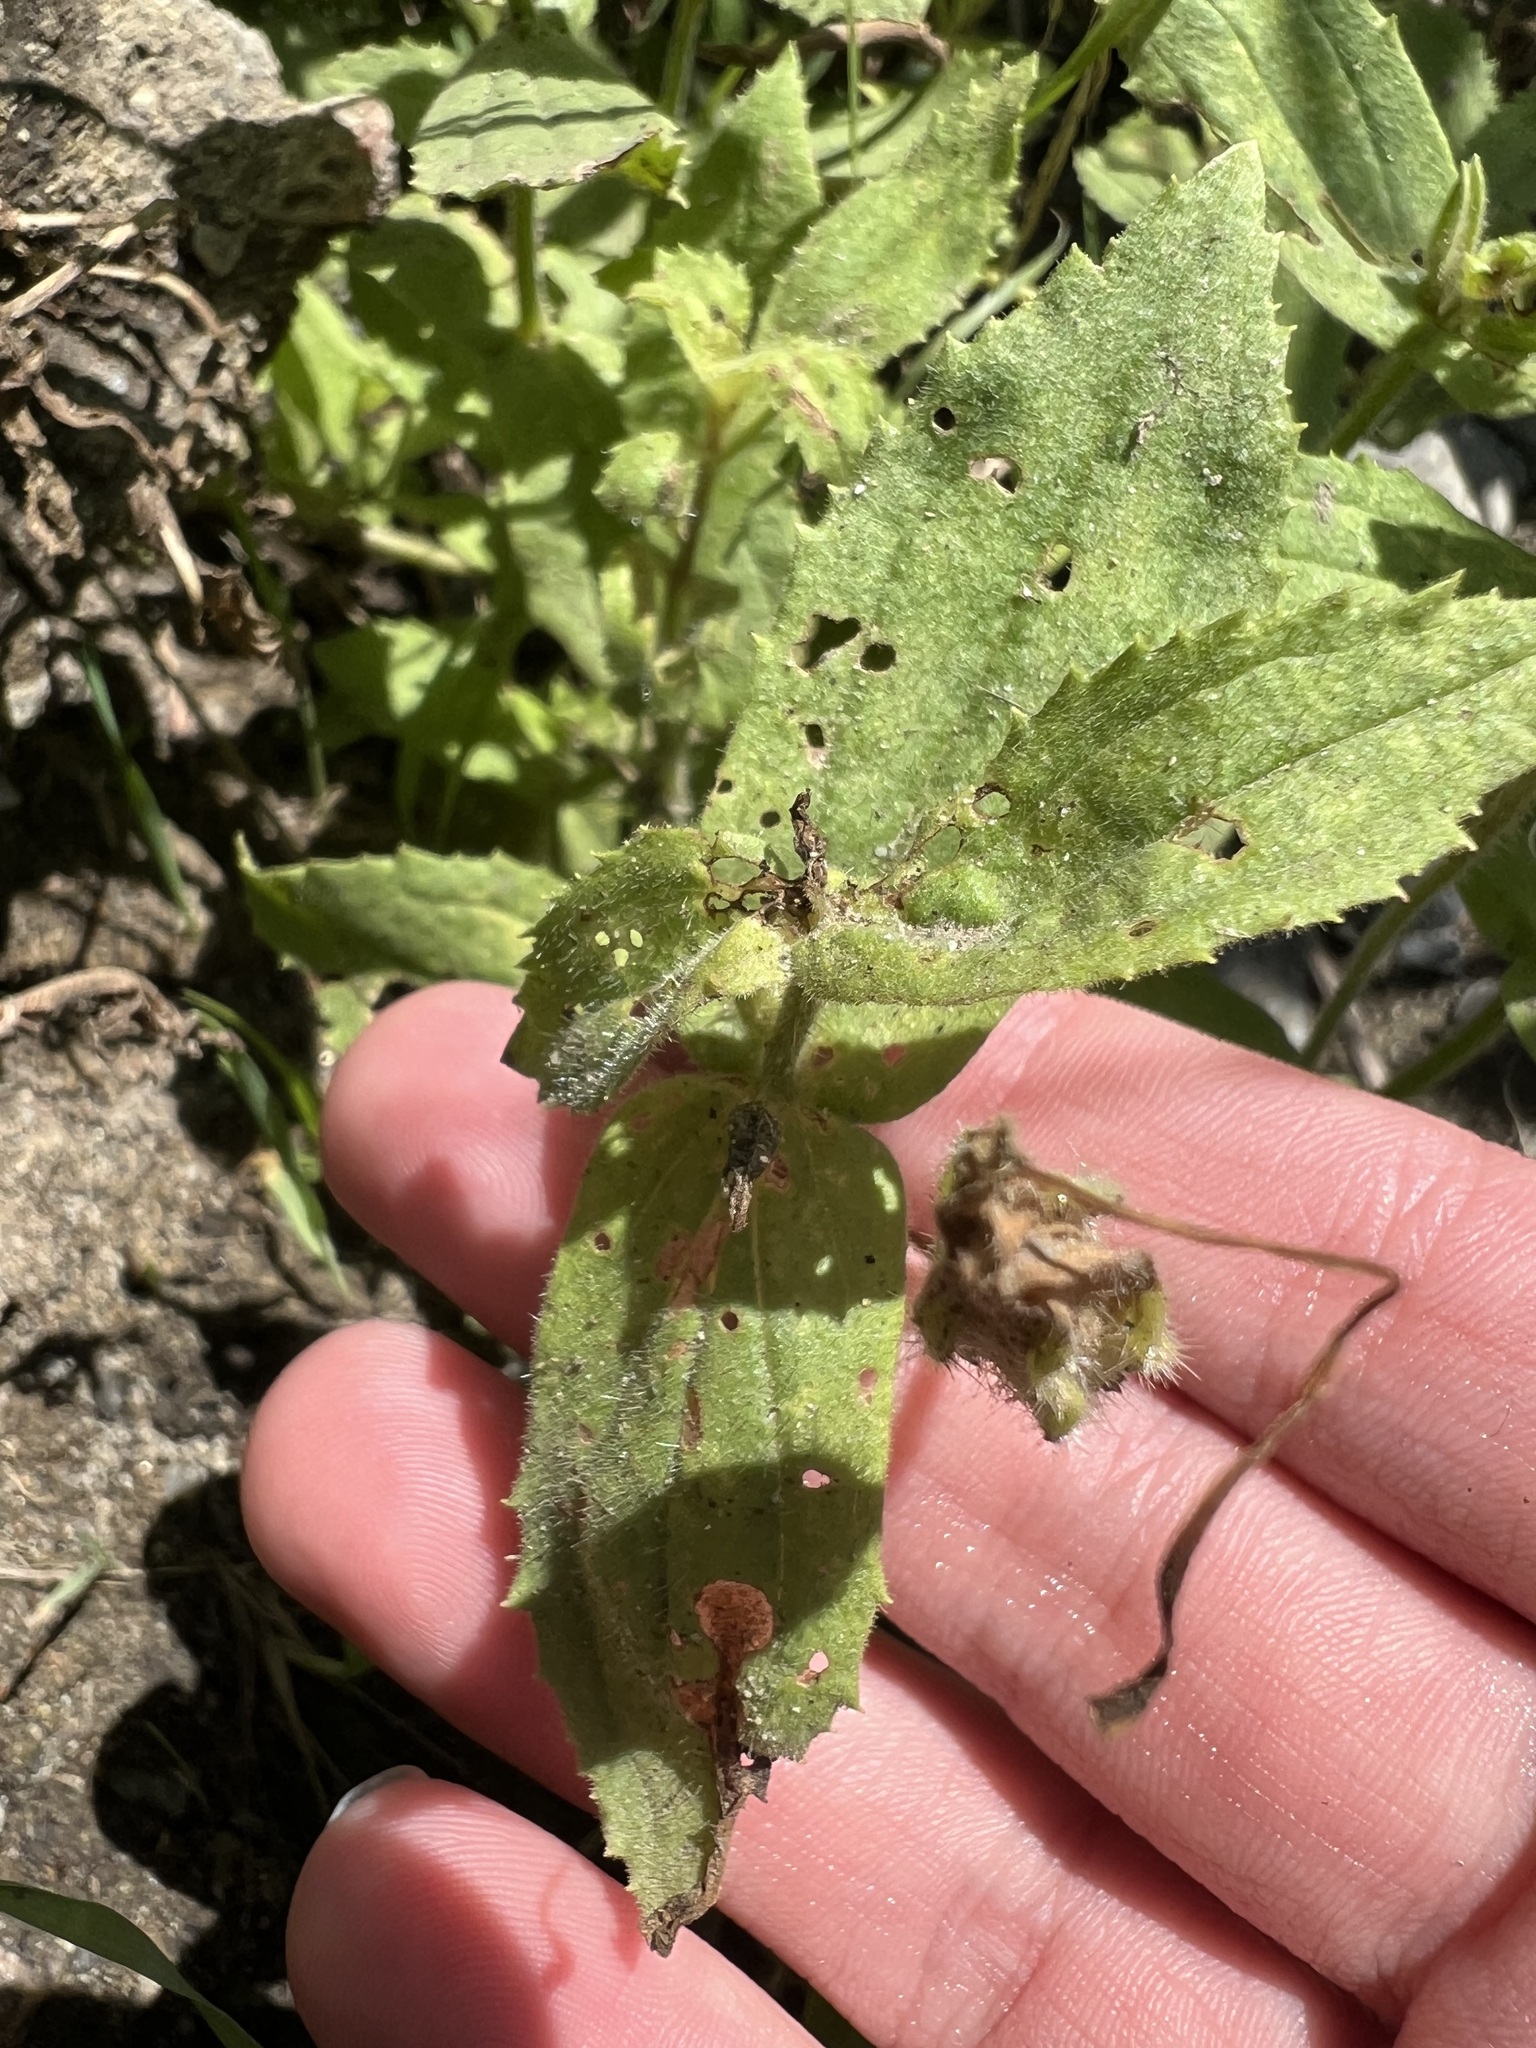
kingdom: Plantae
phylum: Tracheophyta
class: Magnoliopsida
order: Lamiales
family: Phrymaceae
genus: Erythranthe
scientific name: Erythranthe cardinalis
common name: Scarlet monkey-flower
